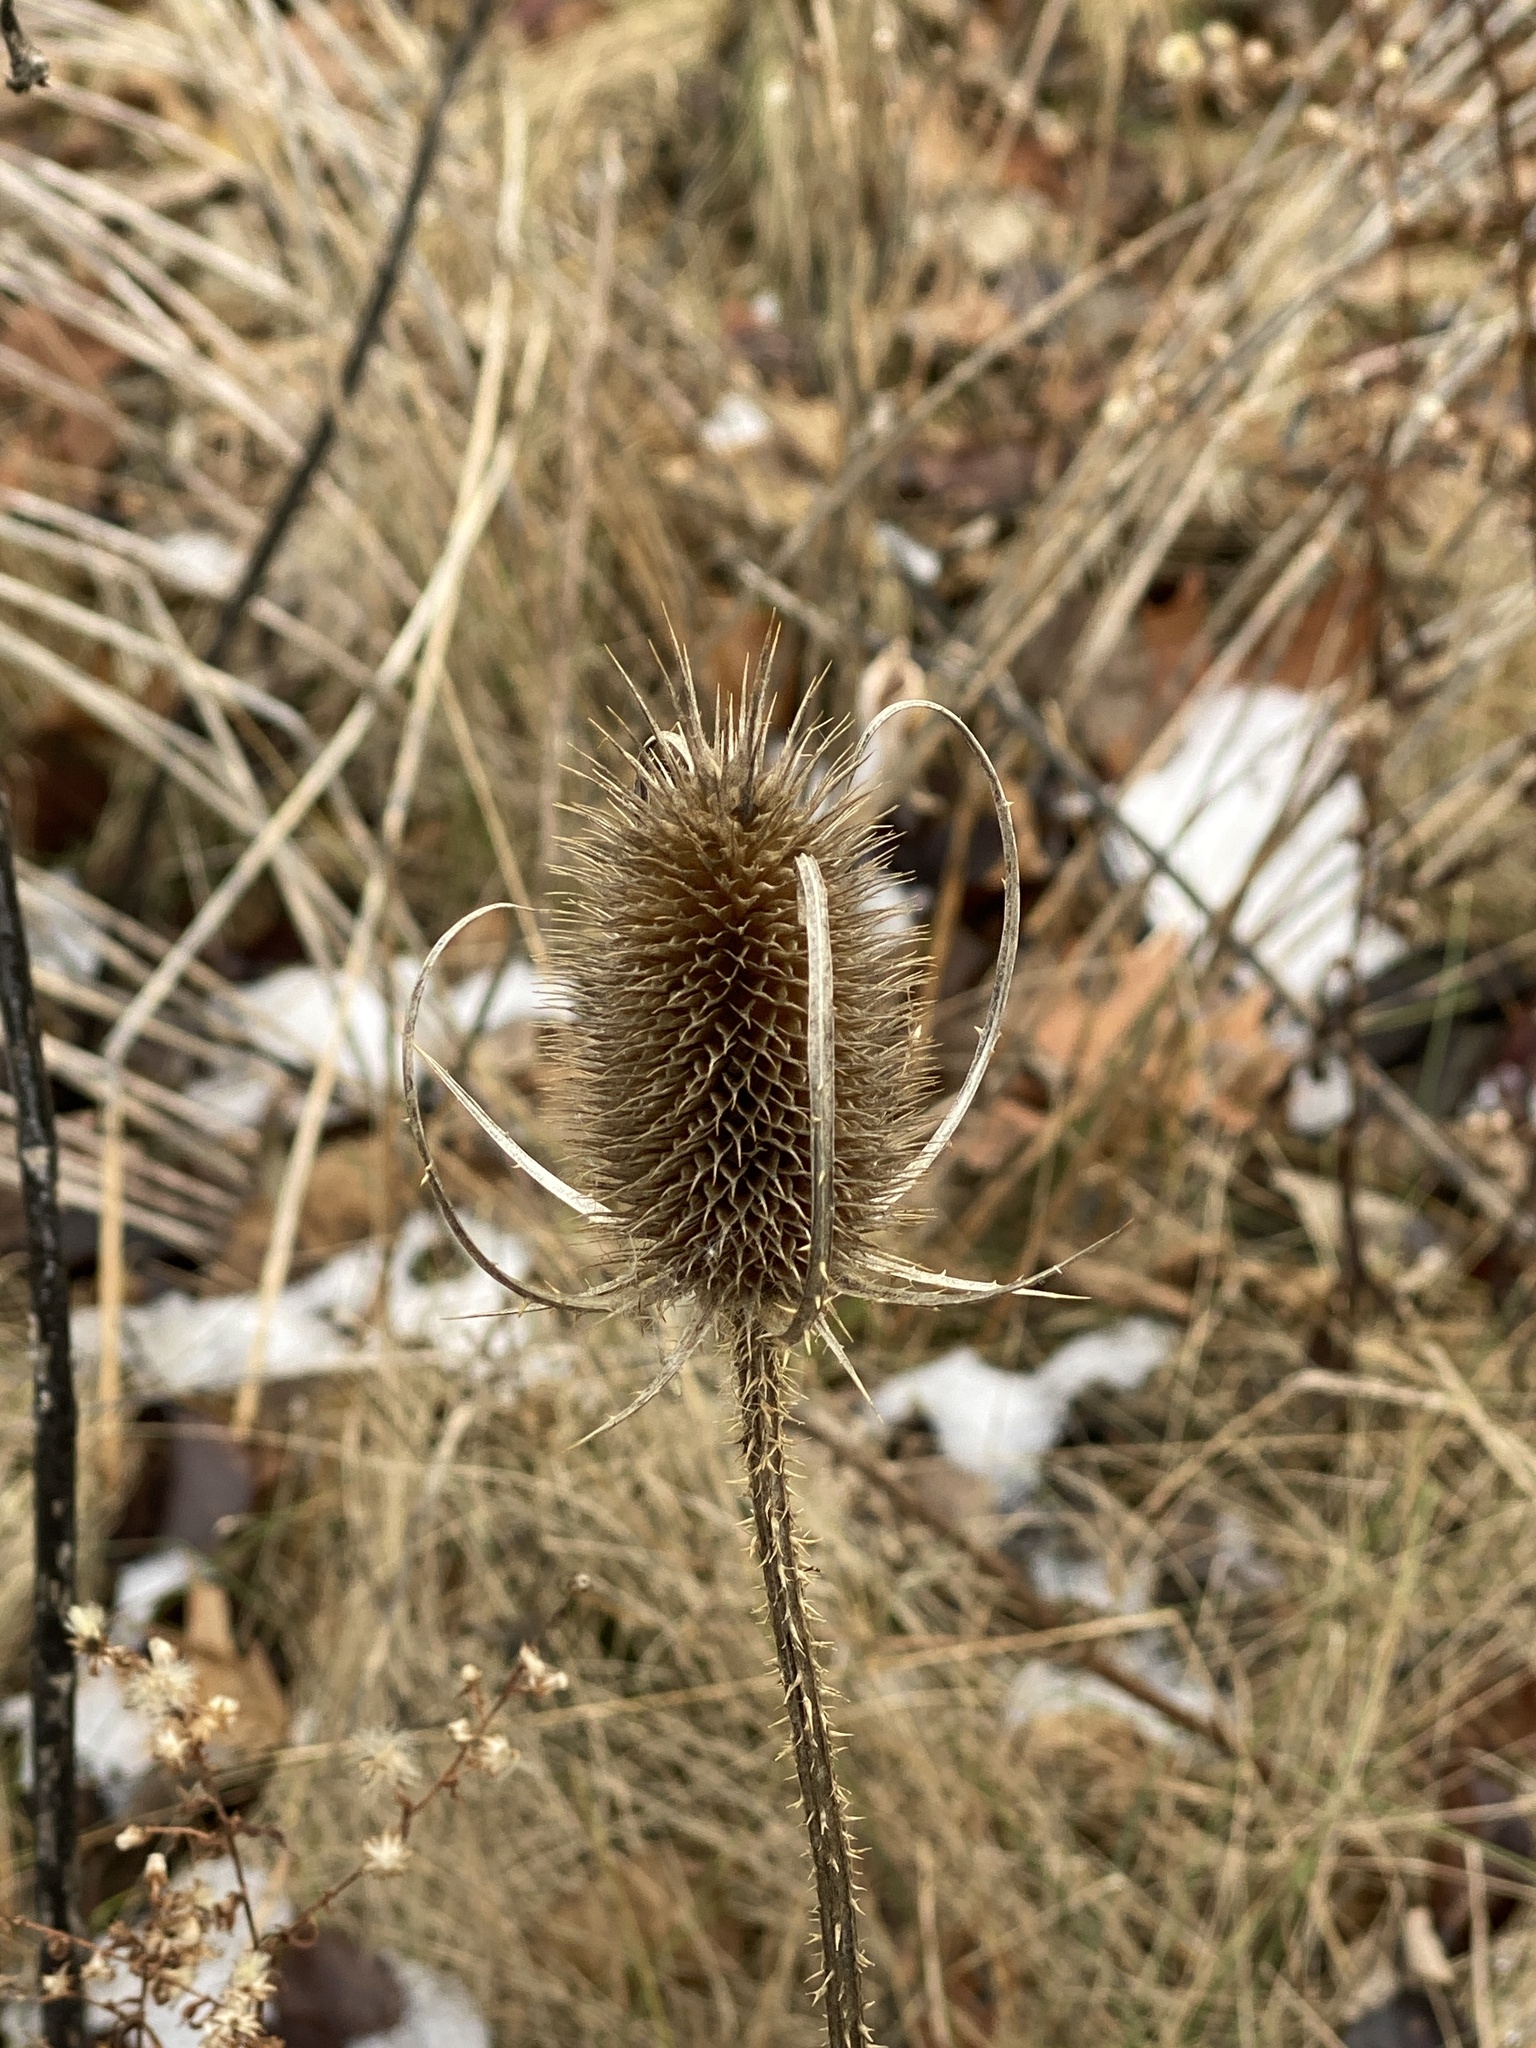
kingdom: Plantae
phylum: Tracheophyta
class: Magnoliopsida
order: Dipsacales
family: Caprifoliaceae
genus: Dipsacus
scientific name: Dipsacus fullonum
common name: Teasel
